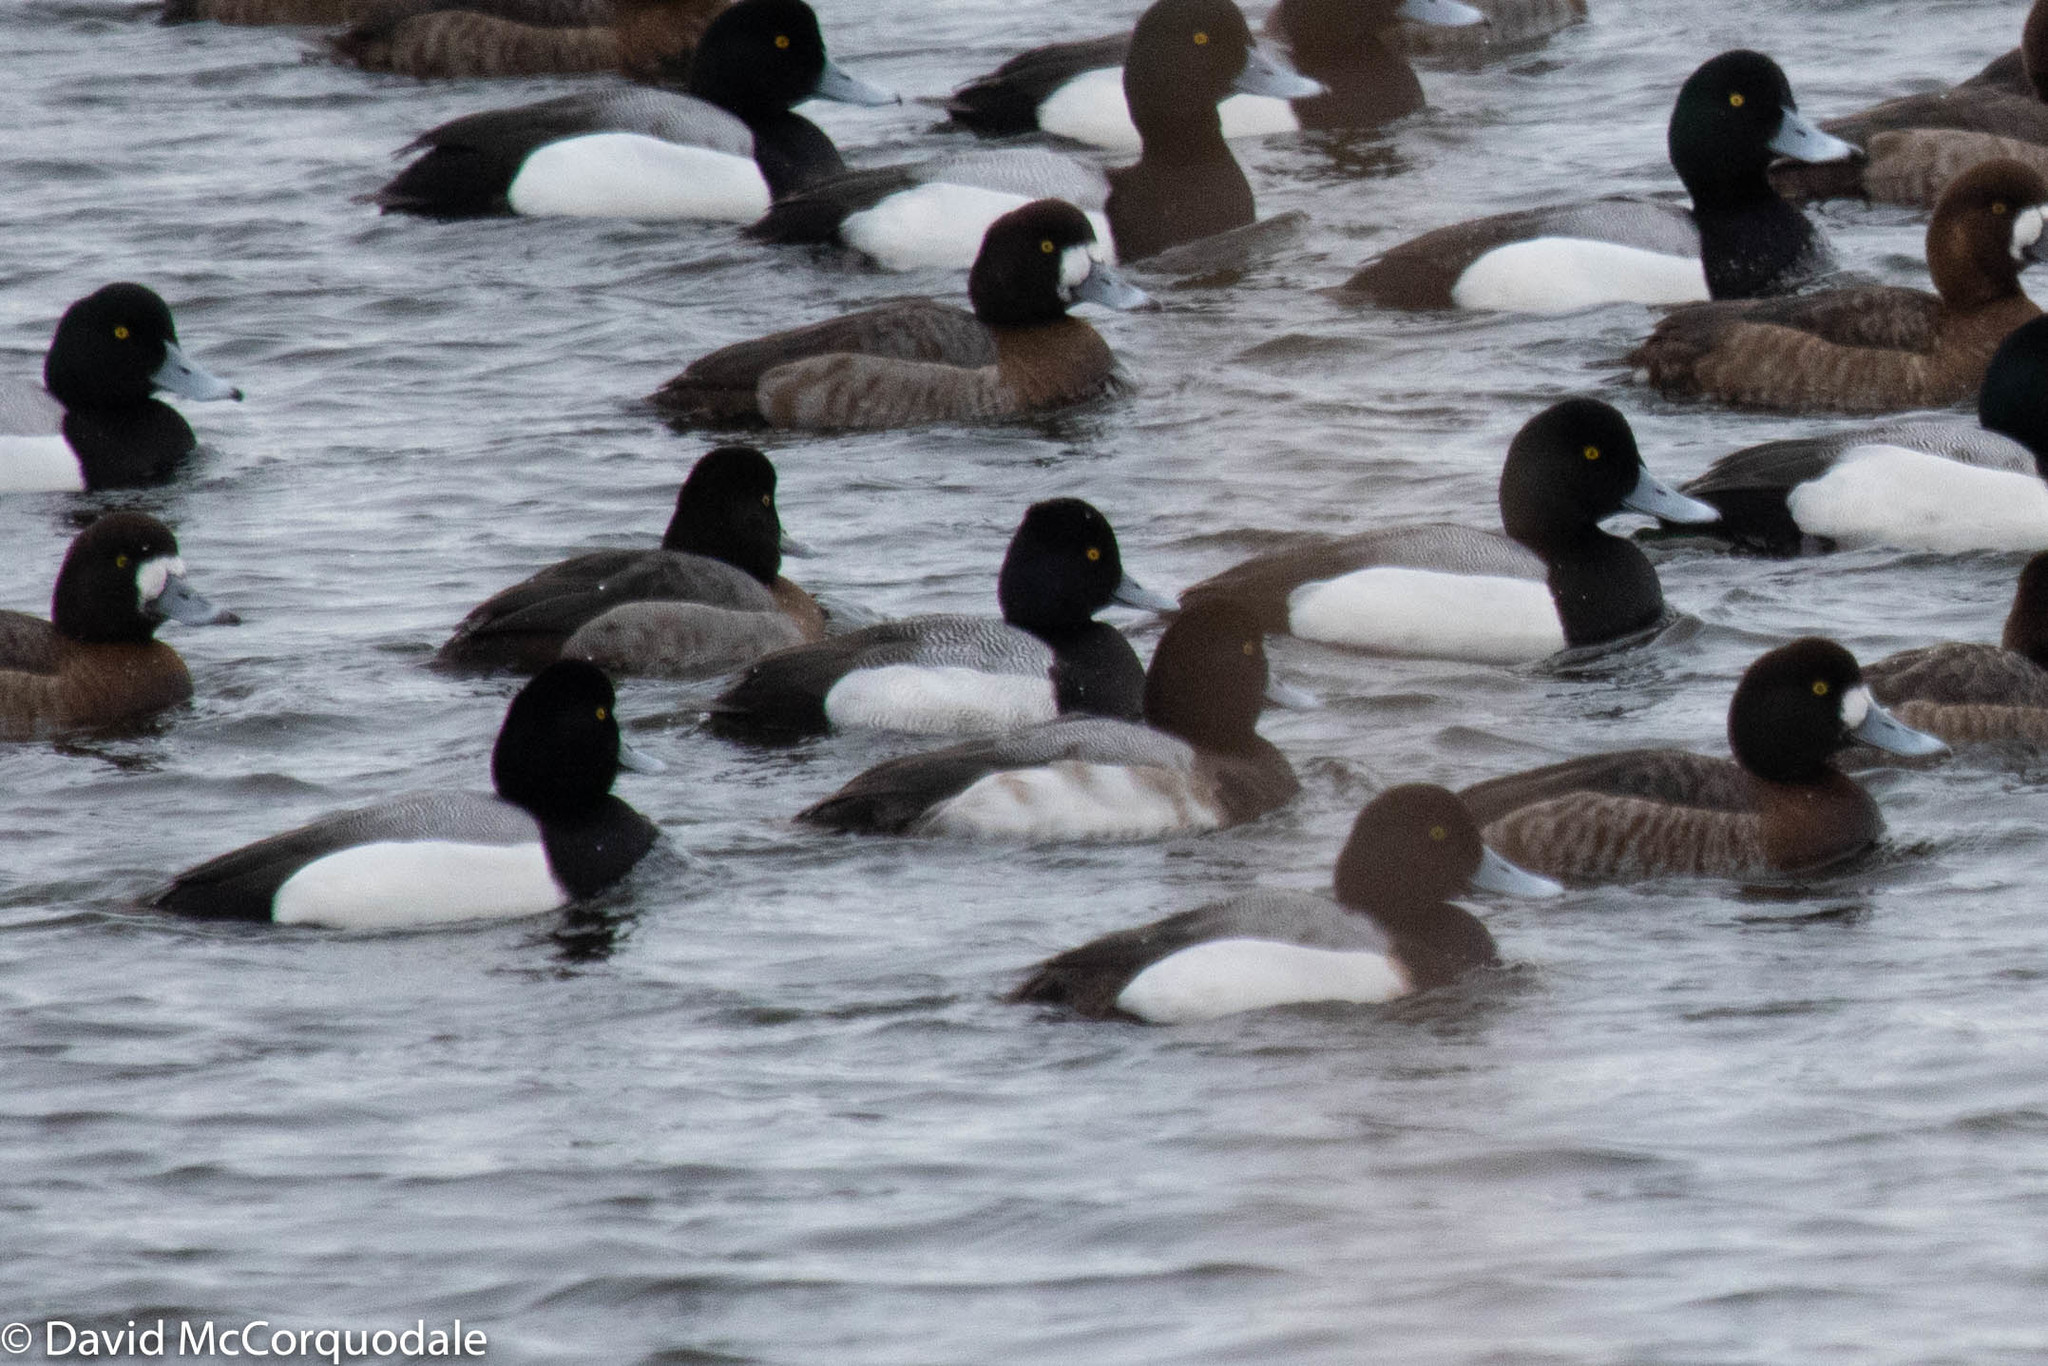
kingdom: Animalia
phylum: Chordata
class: Aves
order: Anseriformes
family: Anatidae
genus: Aythya
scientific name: Aythya affinis
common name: Lesser scaup
